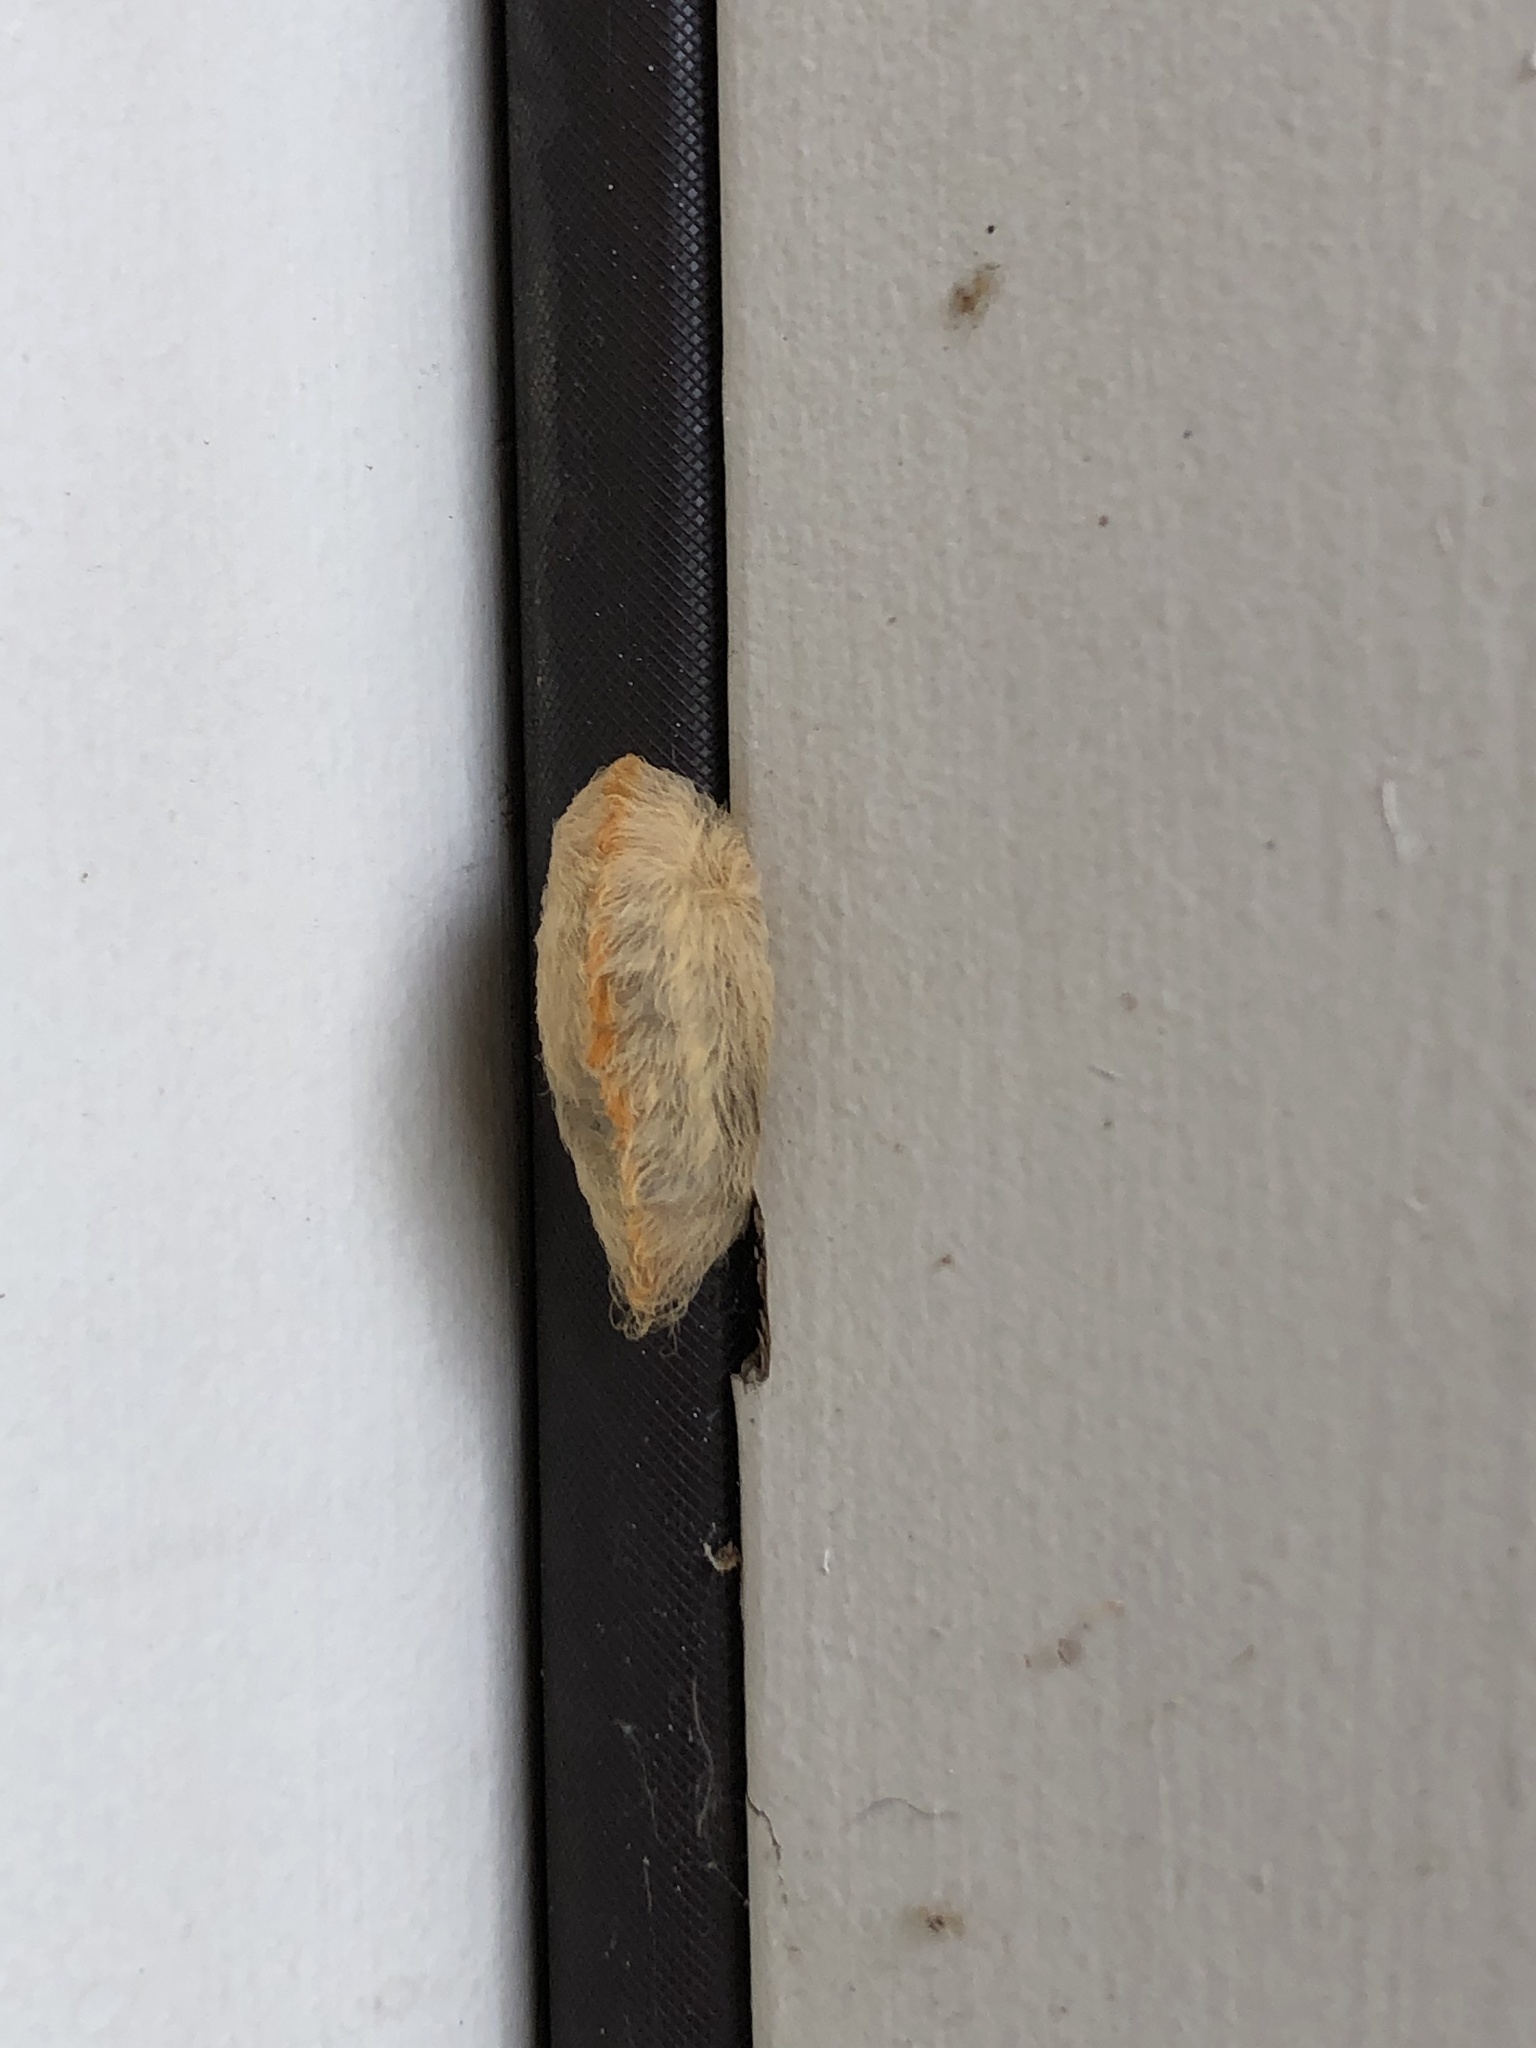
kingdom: Animalia
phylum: Arthropoda
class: Insecta
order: Lepidoptera
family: Megalopygidae
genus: Megalopyge
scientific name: Megalopyge opercularis
